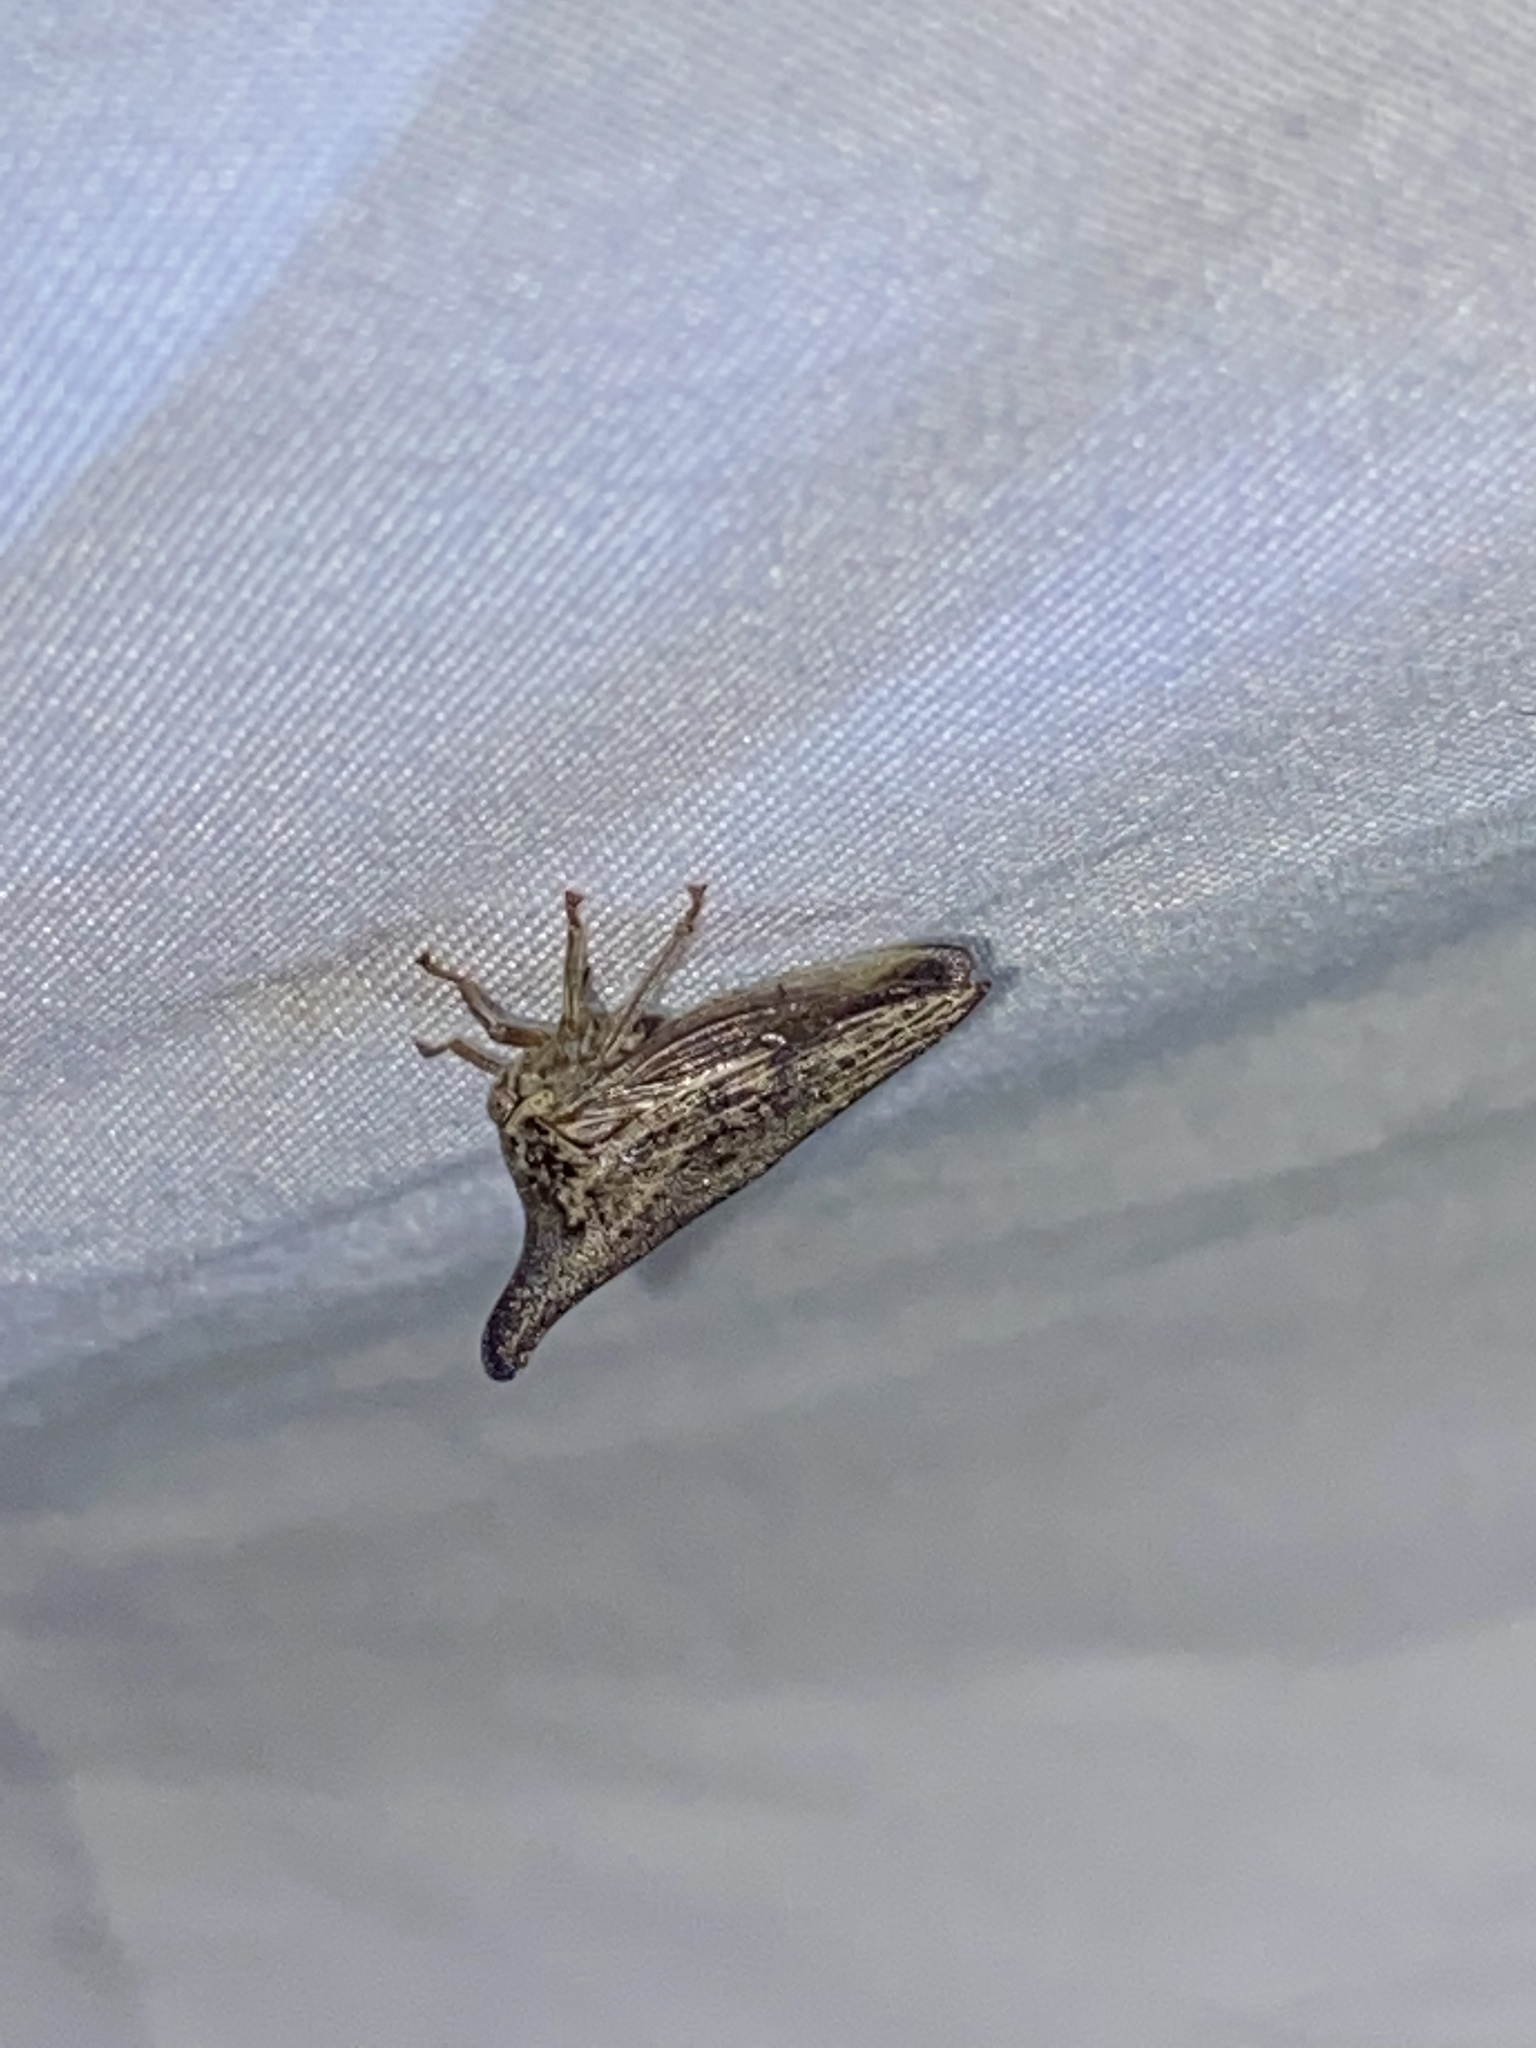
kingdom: Animalia
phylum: Arthropoda
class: Insecta
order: Hemiptera
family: Membracidae
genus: Thelia
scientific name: Thelia bimaculata
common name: Locust treehopper
